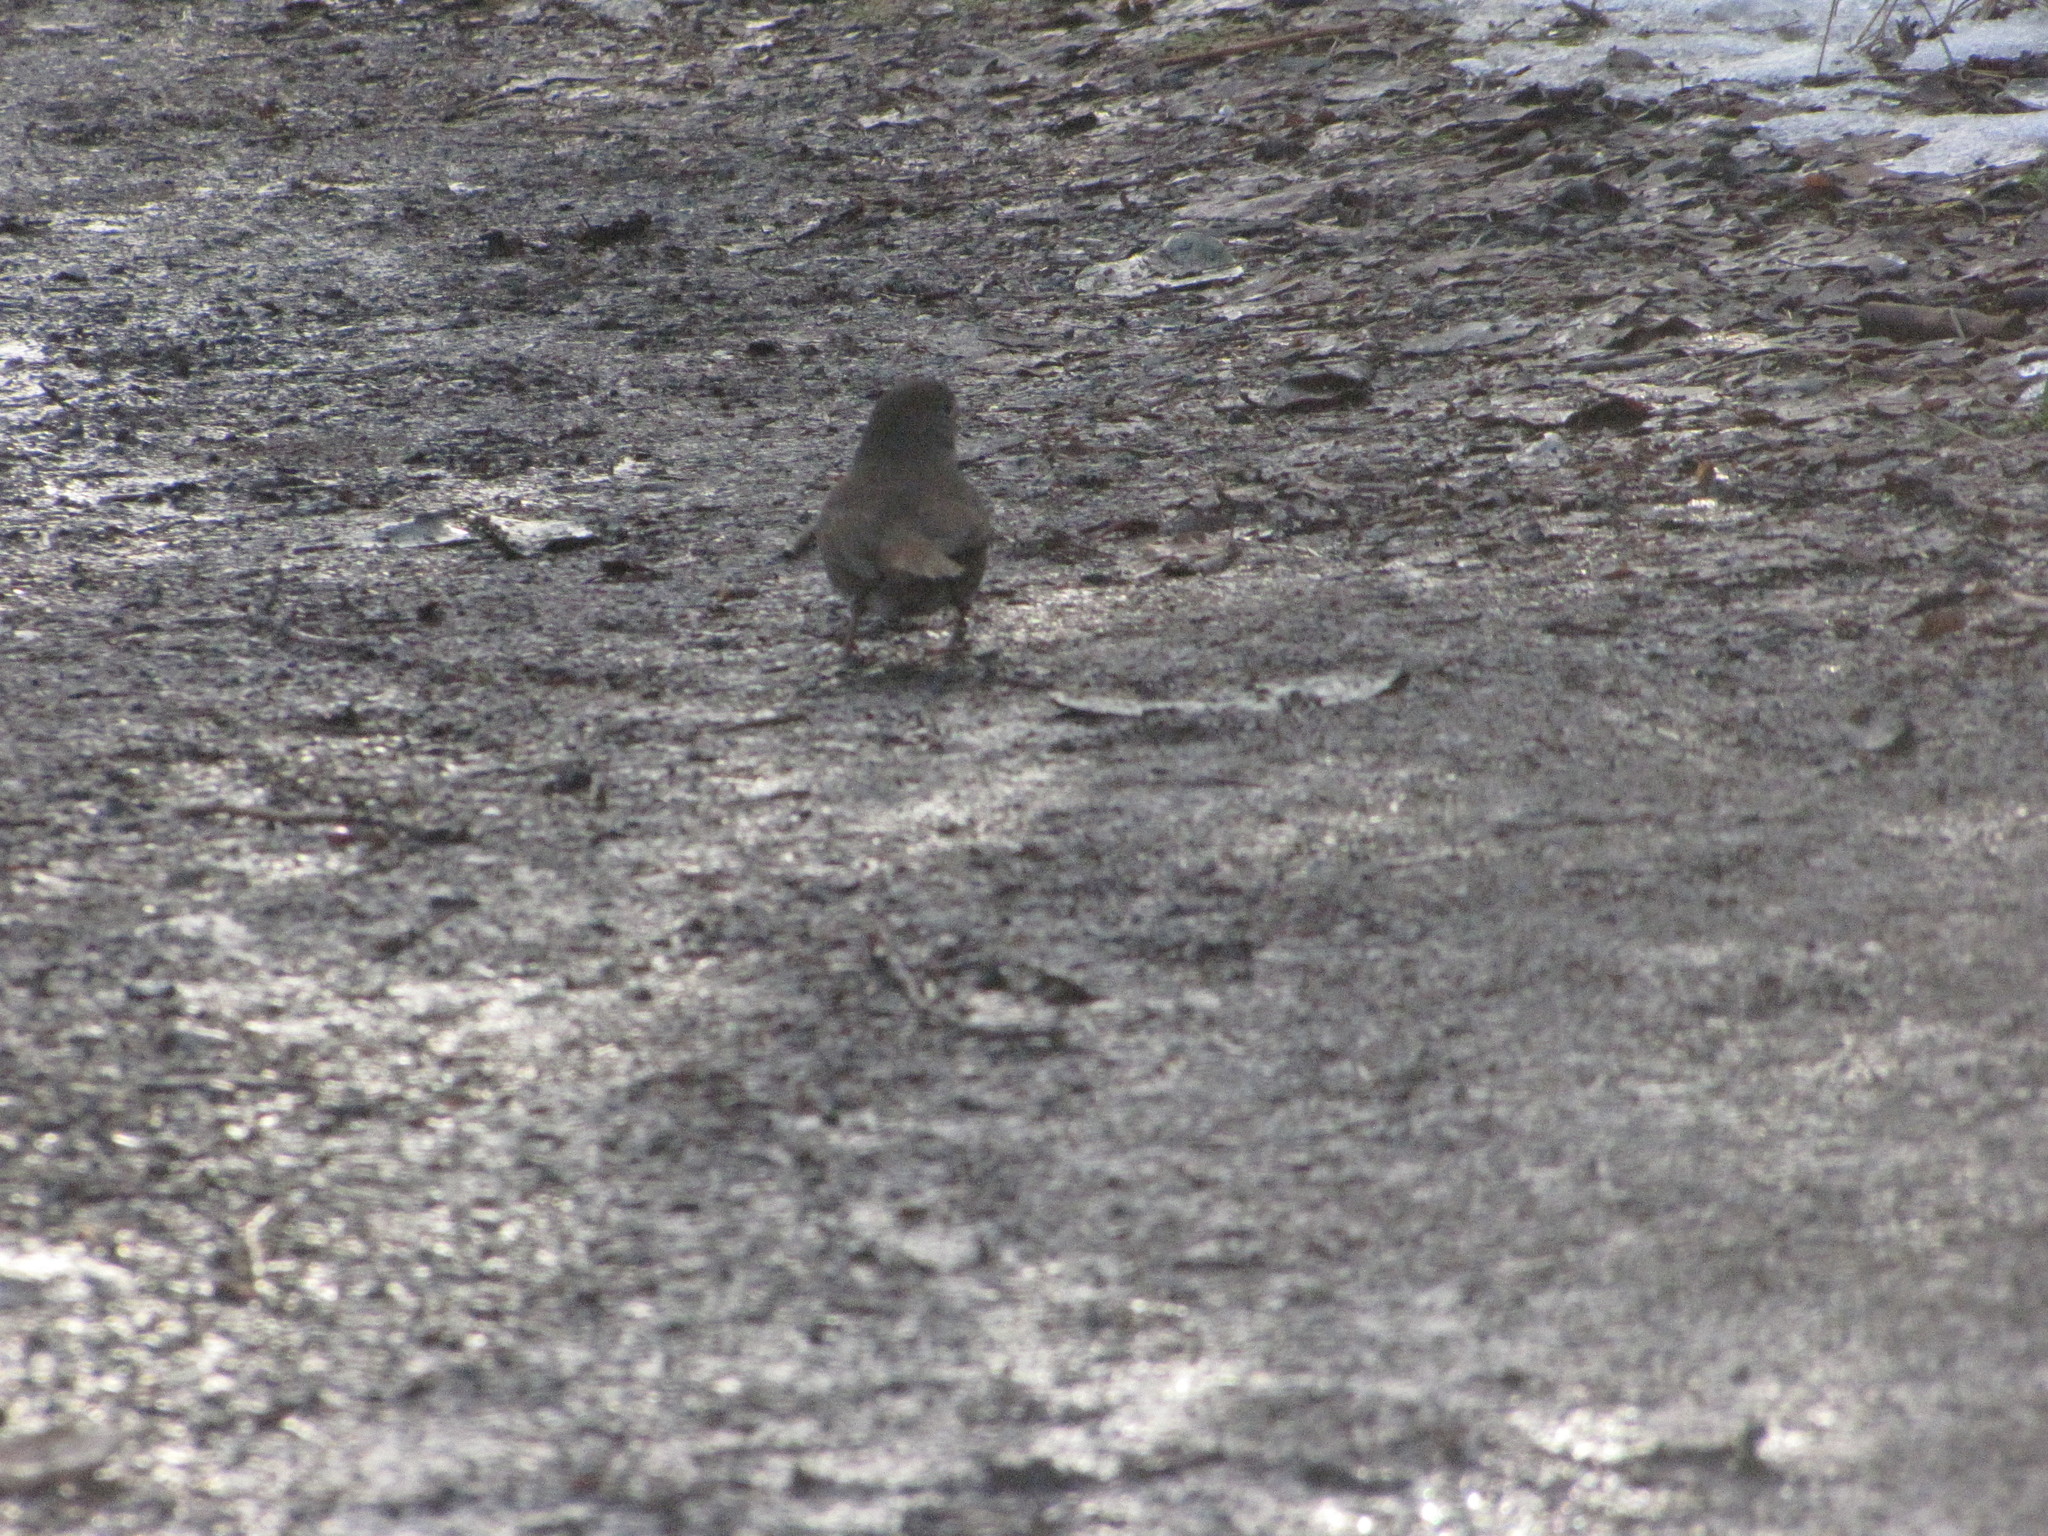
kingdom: Animalia
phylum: Chordata
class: Aves
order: Passeriformes
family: Passerellidae
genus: Junco
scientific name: Junco hyemalis
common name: Dark-eyed junco
